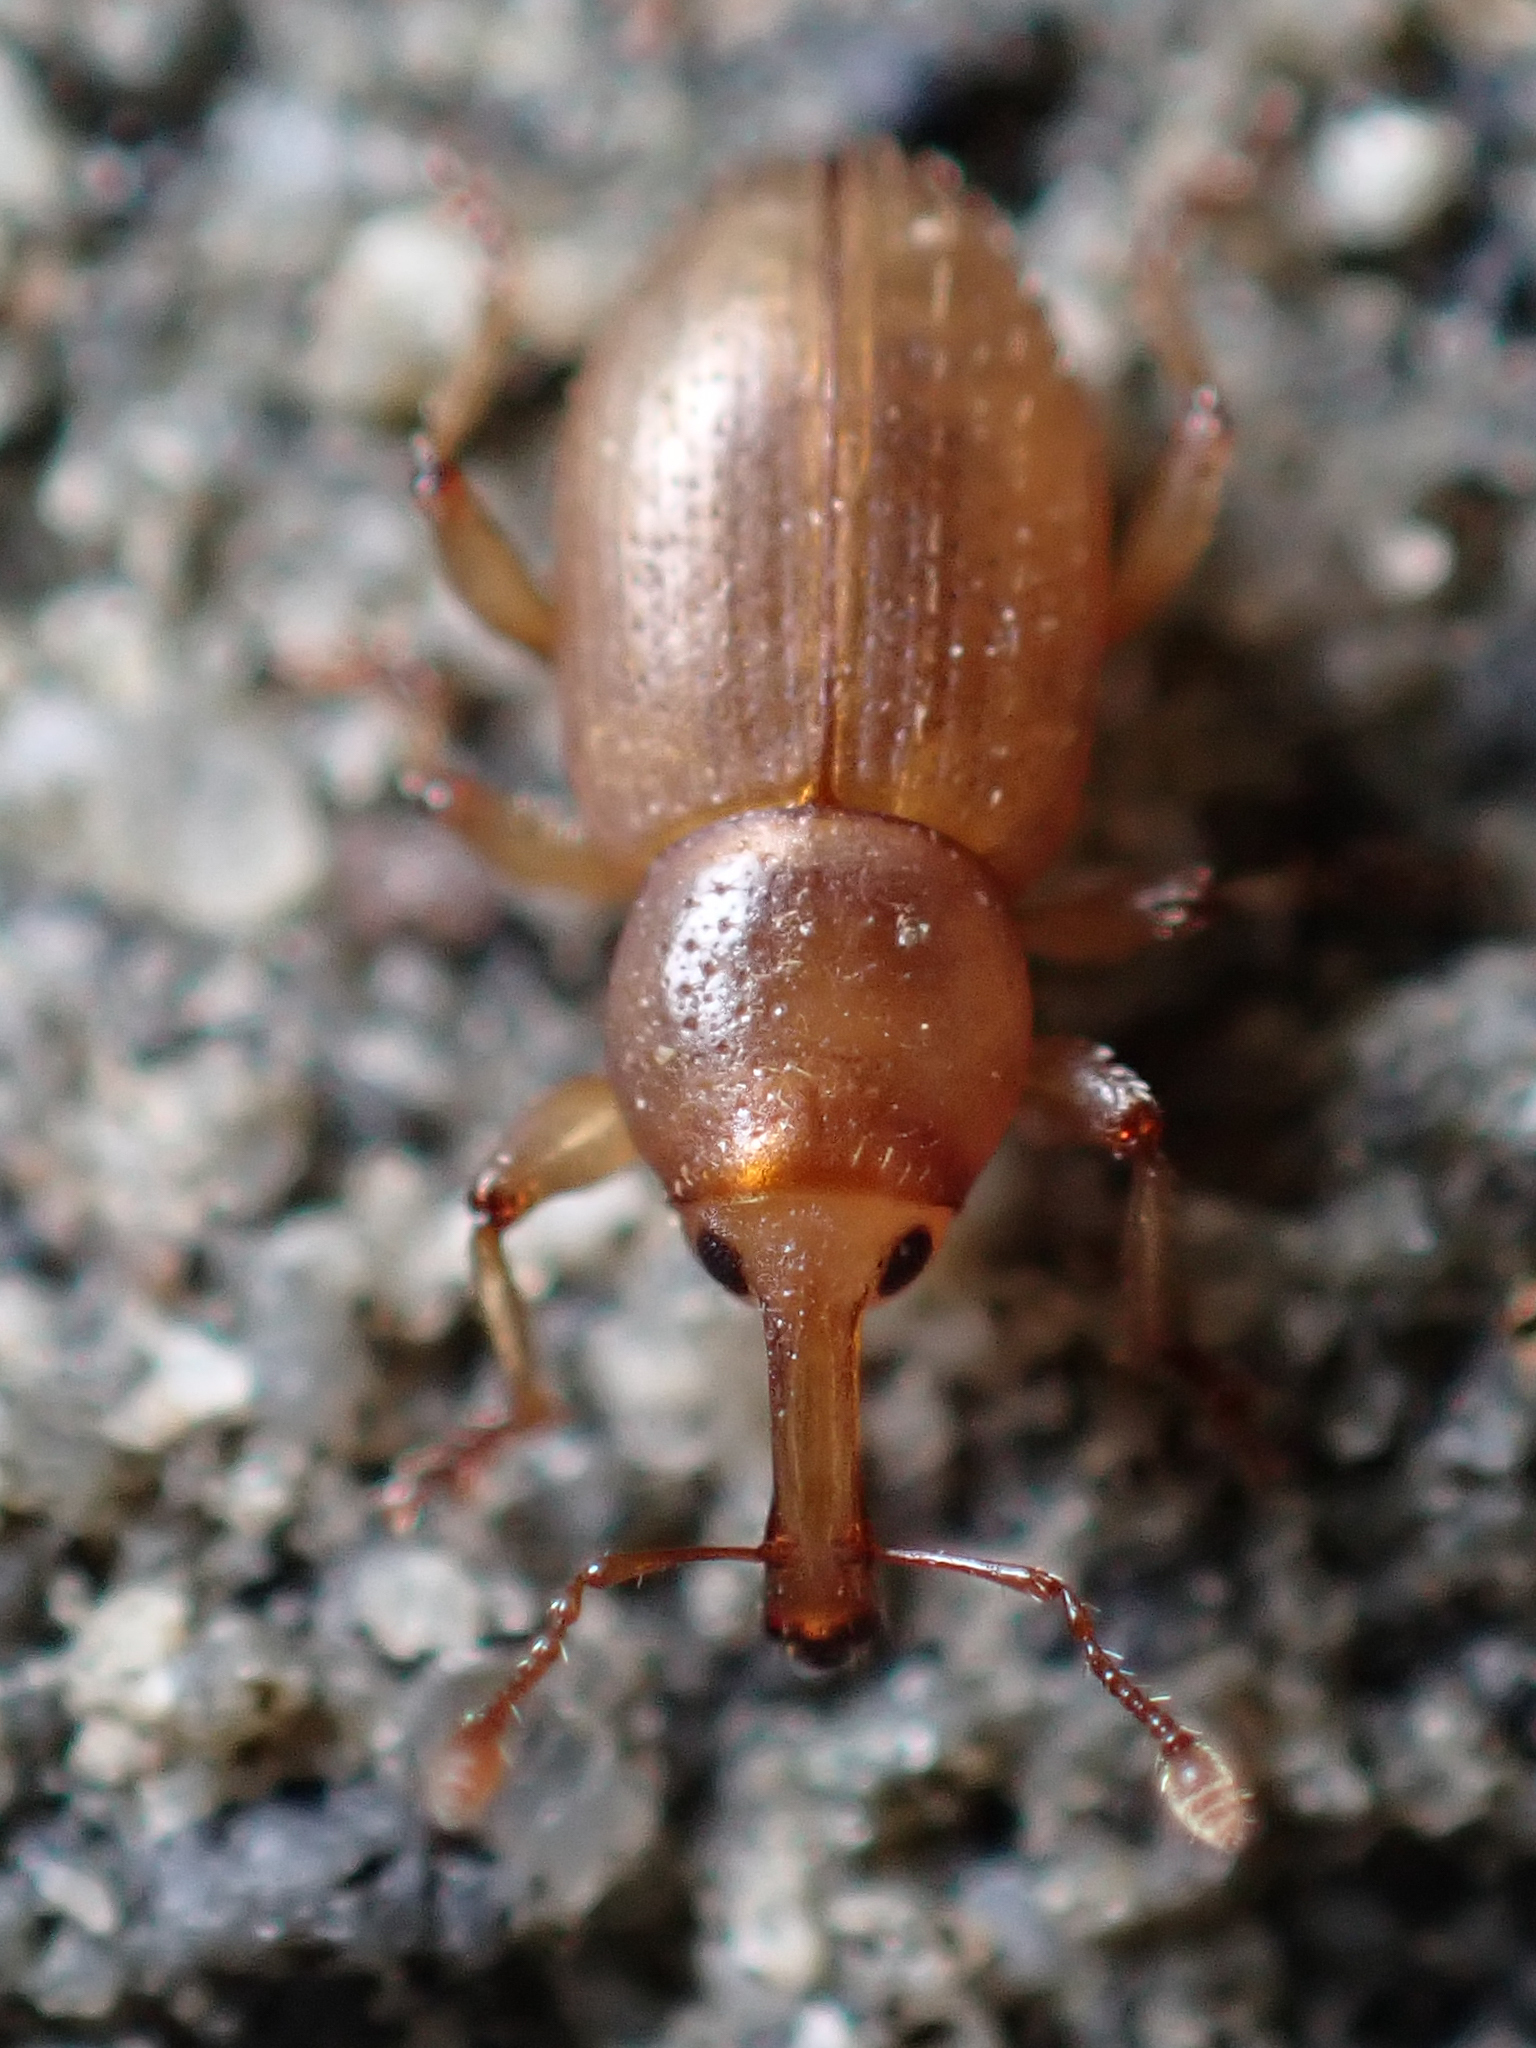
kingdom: Animalia
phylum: Arthropoda
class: Insecta
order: Coleoptera
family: Curculionidae
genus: Phycocoetes
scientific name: Phycocoetes testaceus
